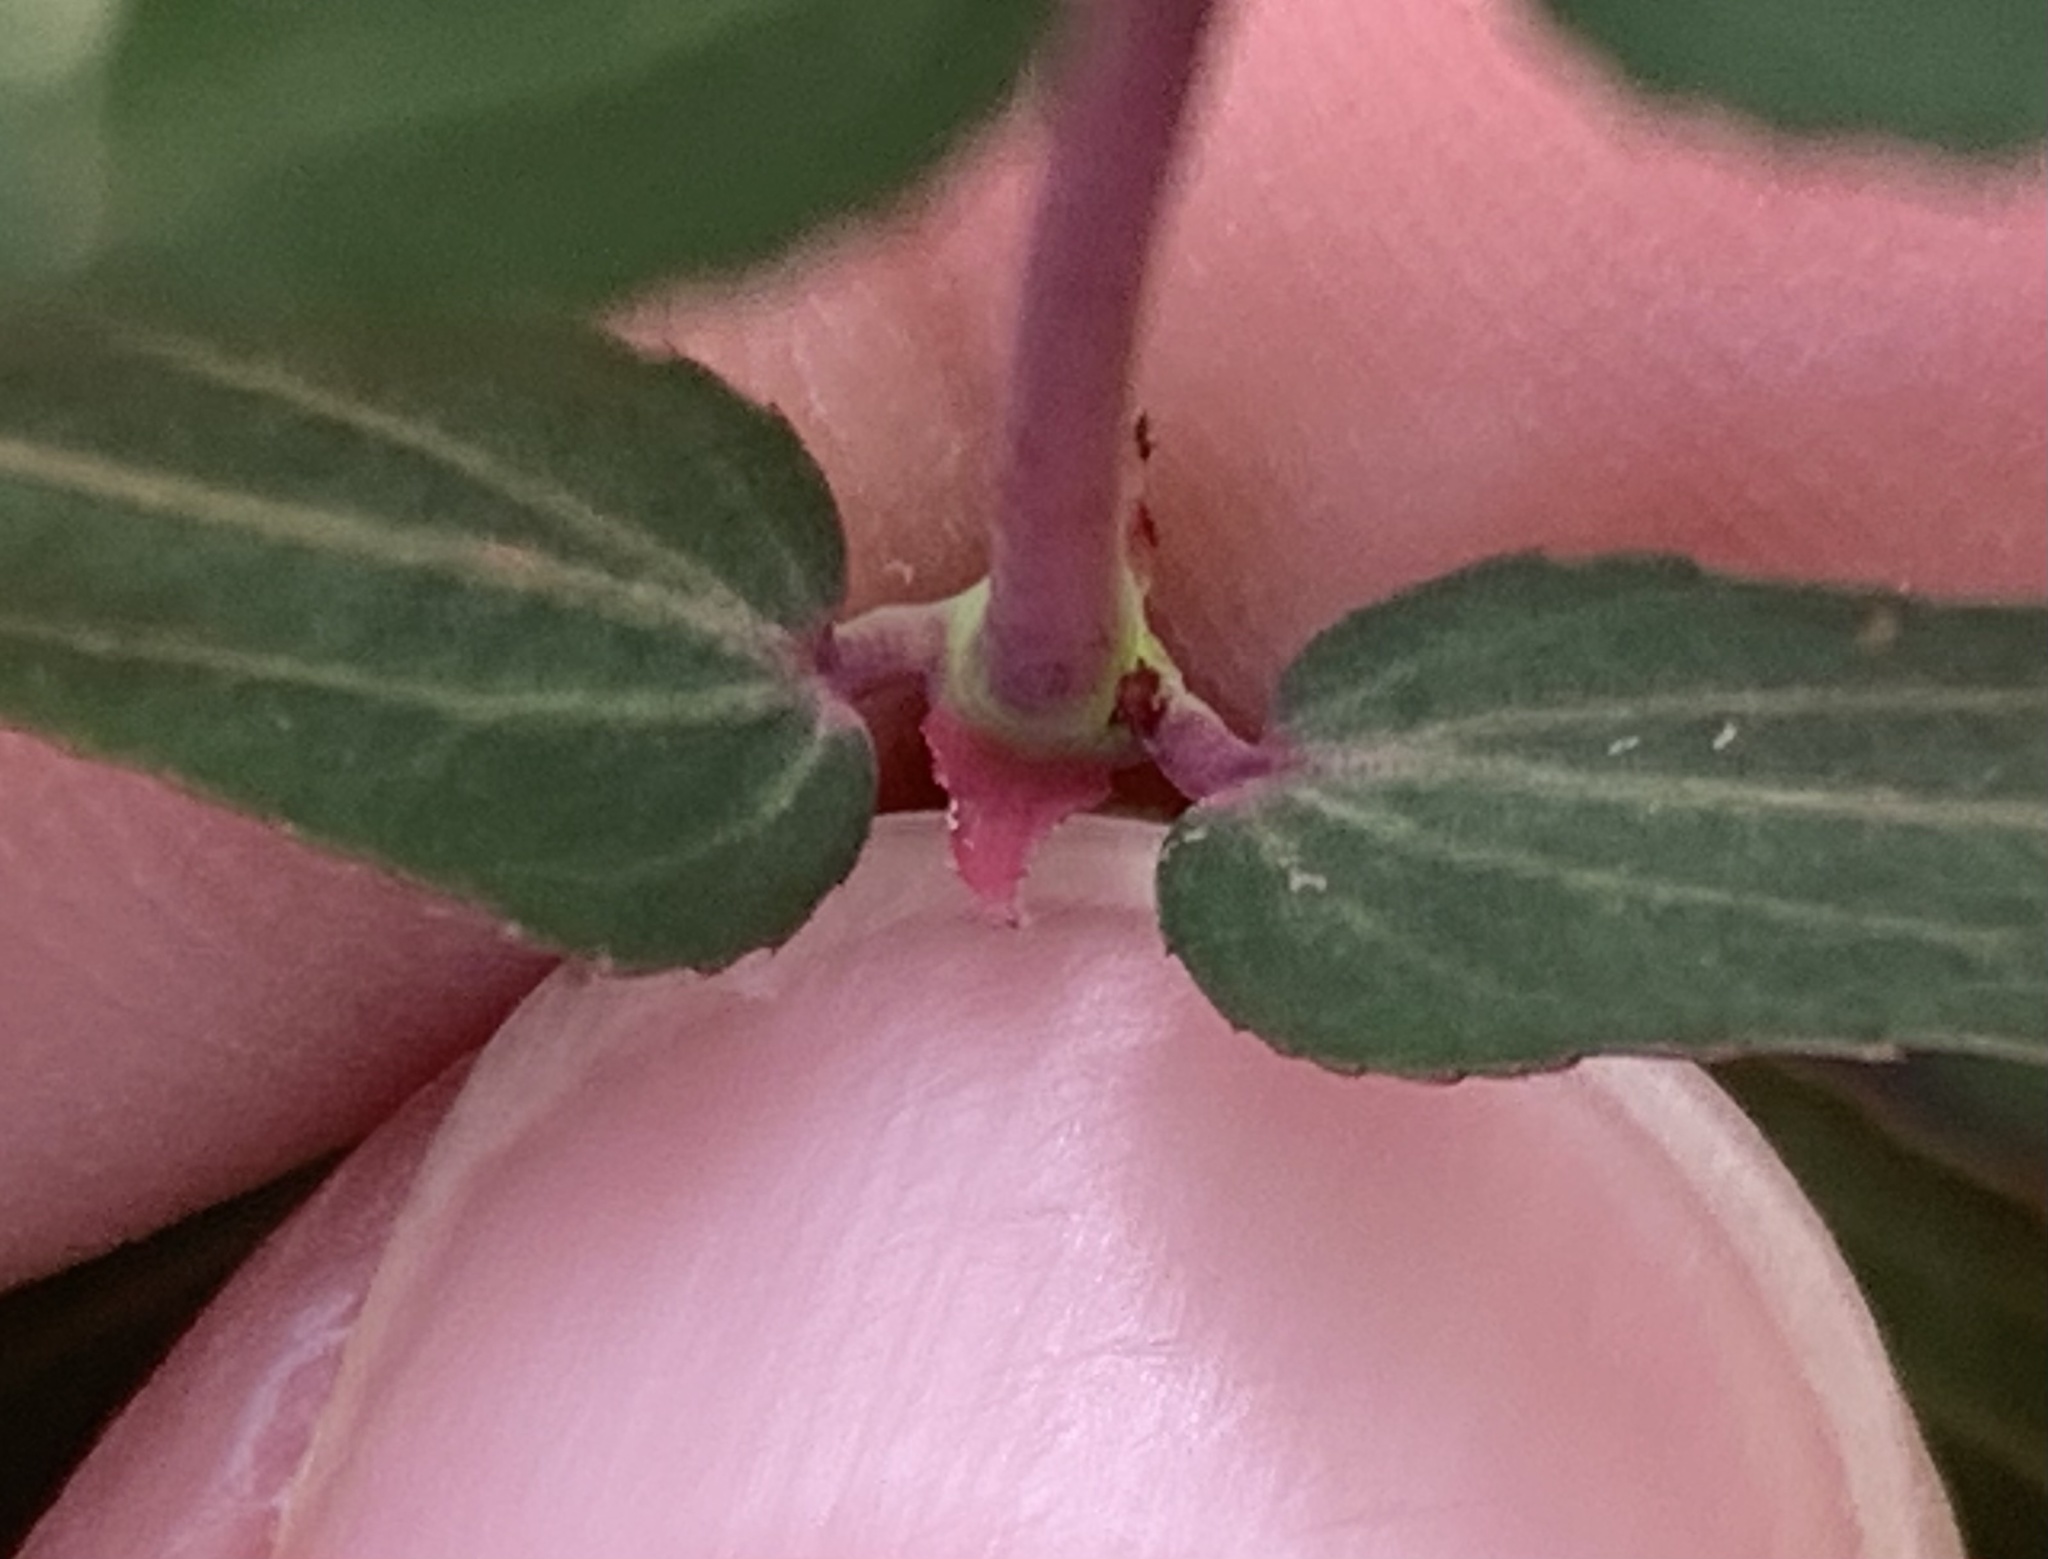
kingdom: Plantae
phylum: Tracheophyta
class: Magnoliopsida
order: Malpighiales
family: Euphorbiaceae
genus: Euphorbia
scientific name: Euphorbia hypericifolia
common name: Graceful sandmat
